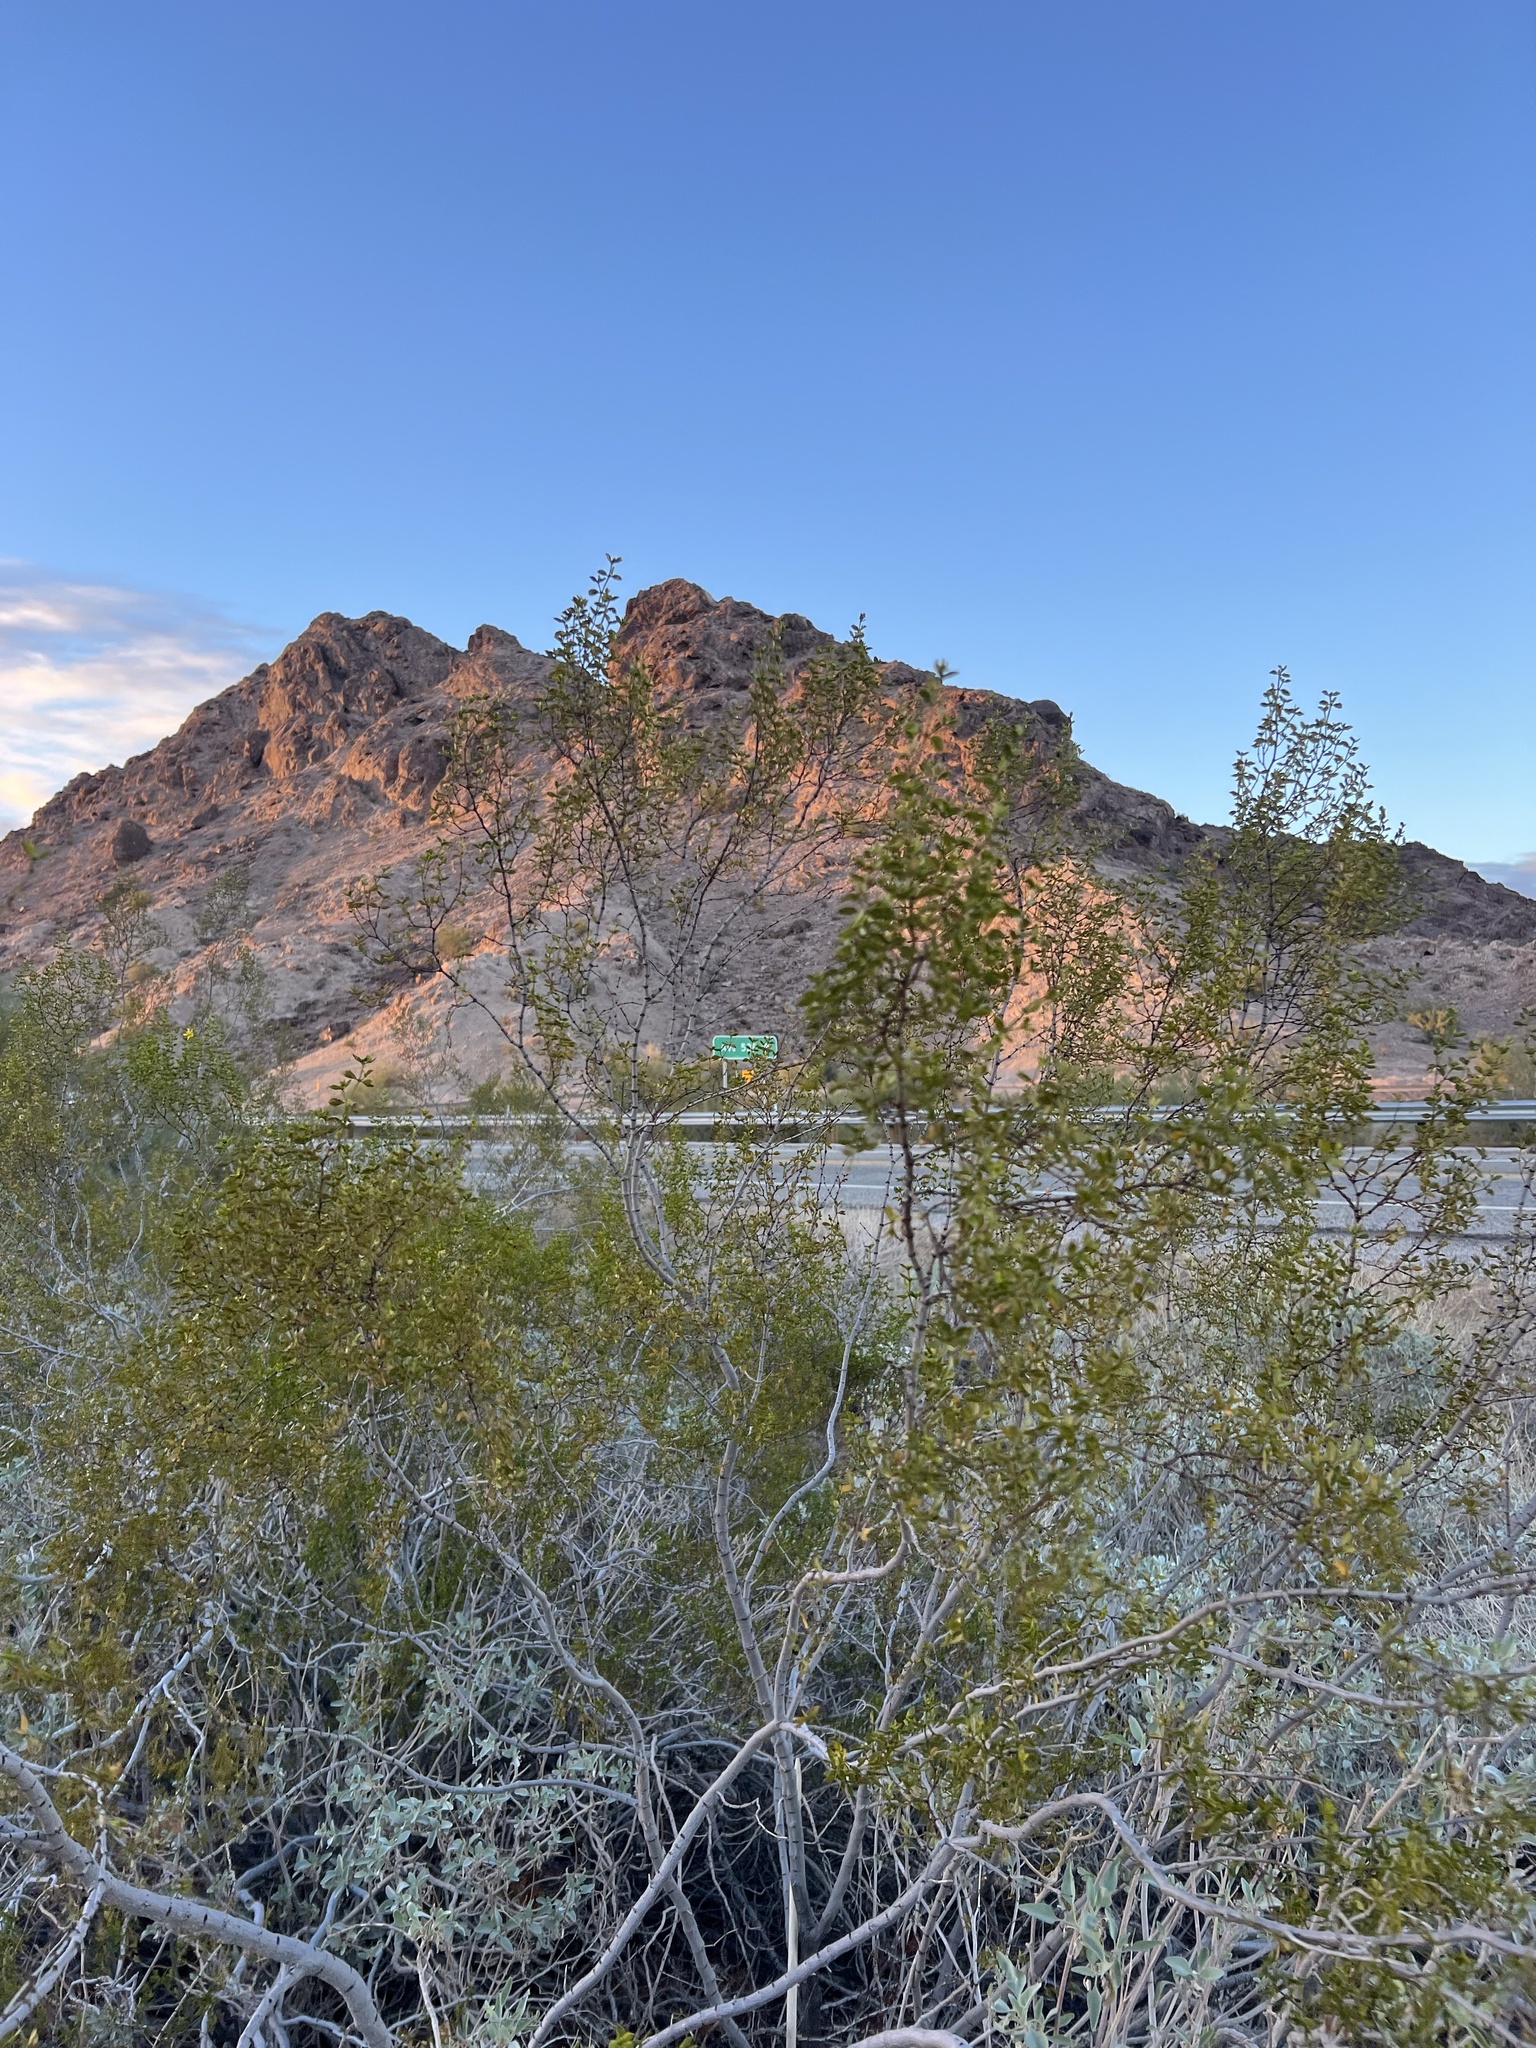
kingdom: Plantae
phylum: Tracheophyta
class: Magnoliopsida
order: Zygophyllales
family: Zygophyllaceae
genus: Larrea
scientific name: Larrea tridentata
